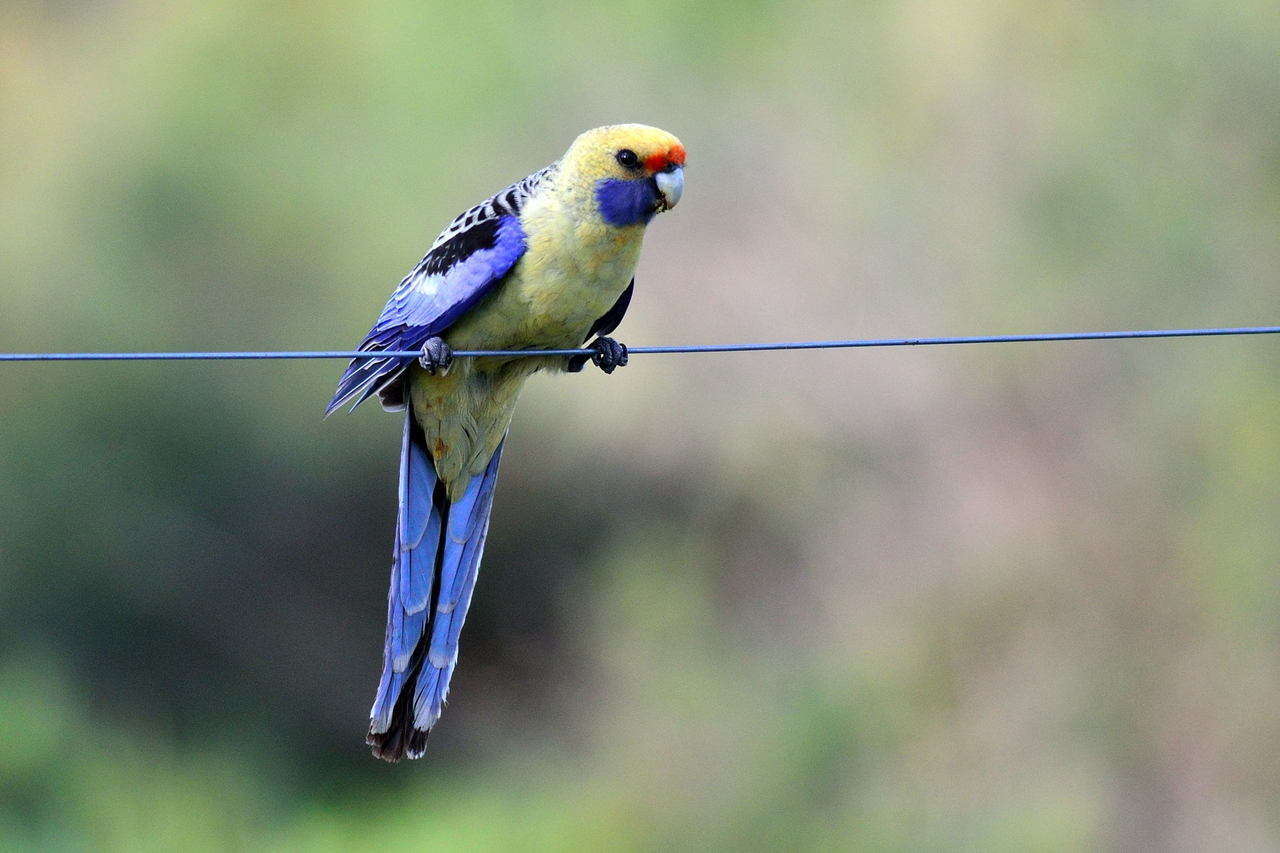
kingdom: Animalia
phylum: Chordata
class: Aves
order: Psittaciformes
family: Psittacidae
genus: Platycercus
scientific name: Platycercus elegans
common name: Crimson rosella
